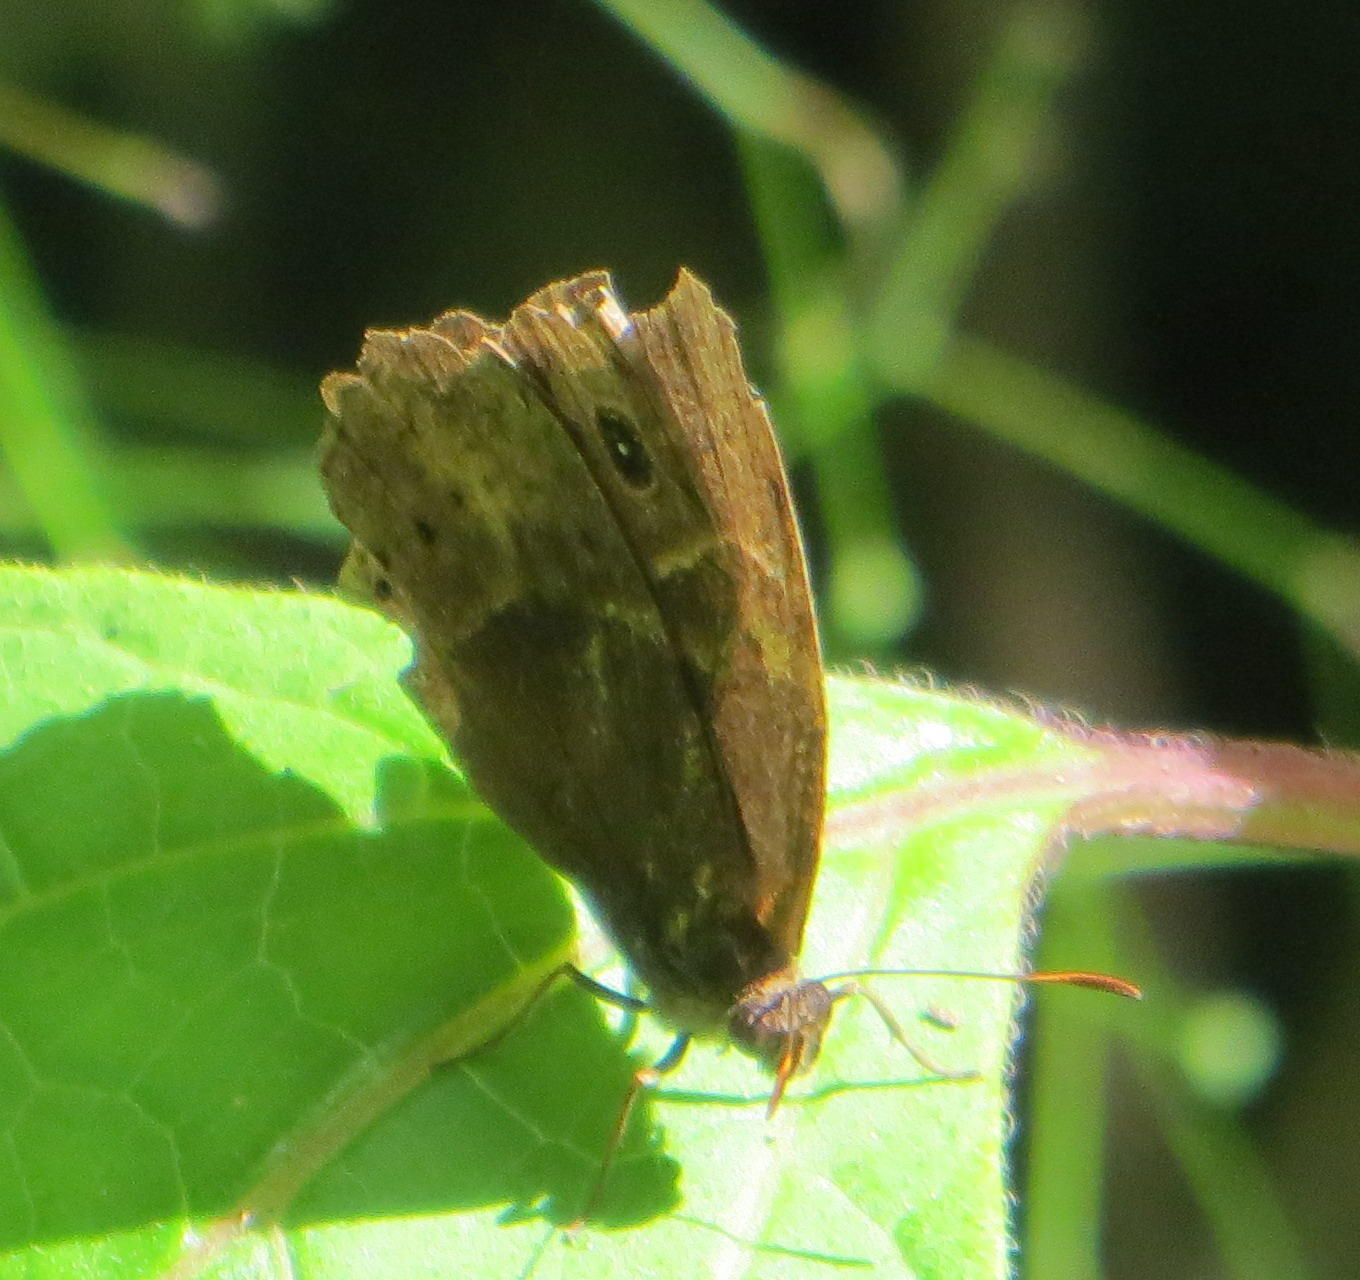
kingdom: Animalia
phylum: Arthropoda
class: Insecta
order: Lepidoptera
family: Nymphalidae
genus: Mycalesis
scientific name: Mycalesis rhacotis
